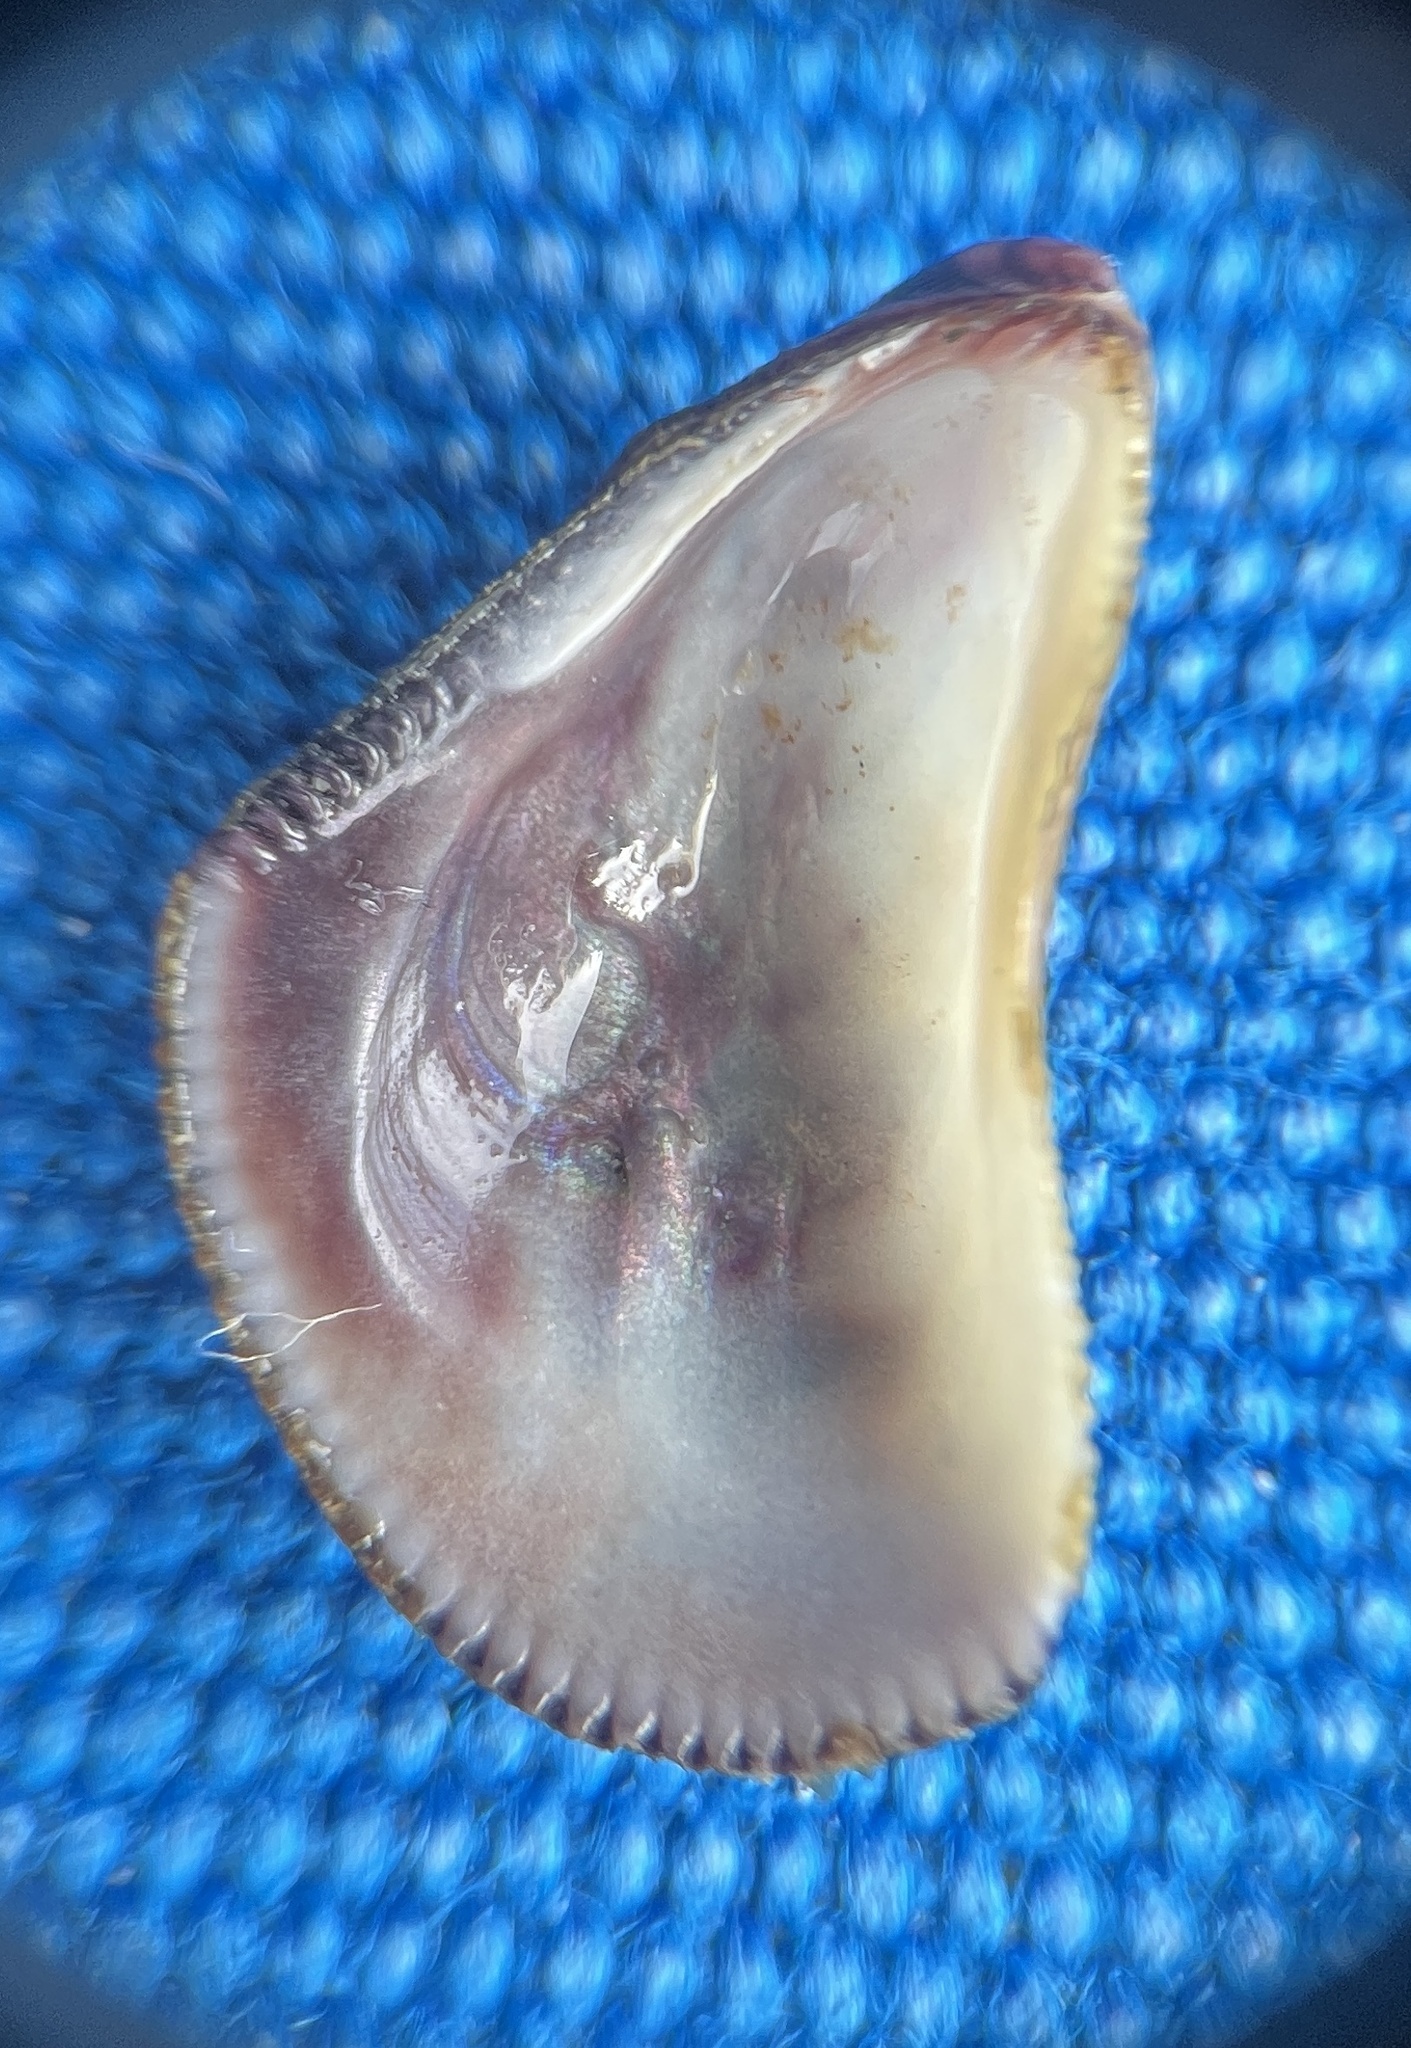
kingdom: Animalia
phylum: Mollusca
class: Bivalvia
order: Mytilida
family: Mytilidae
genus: Brachidontes
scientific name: Brachidontes domingensis
